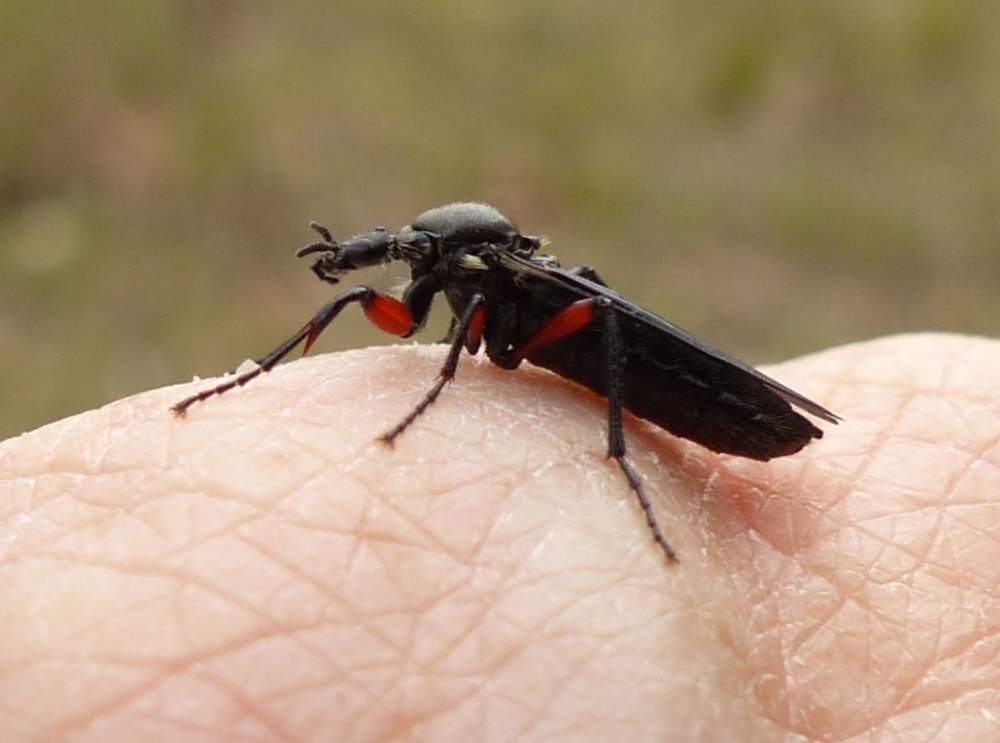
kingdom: Animalia
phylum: Arthropoda
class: Insecta
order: Diptera
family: Bibionidae
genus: Bibio
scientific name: Bibio femoratus
